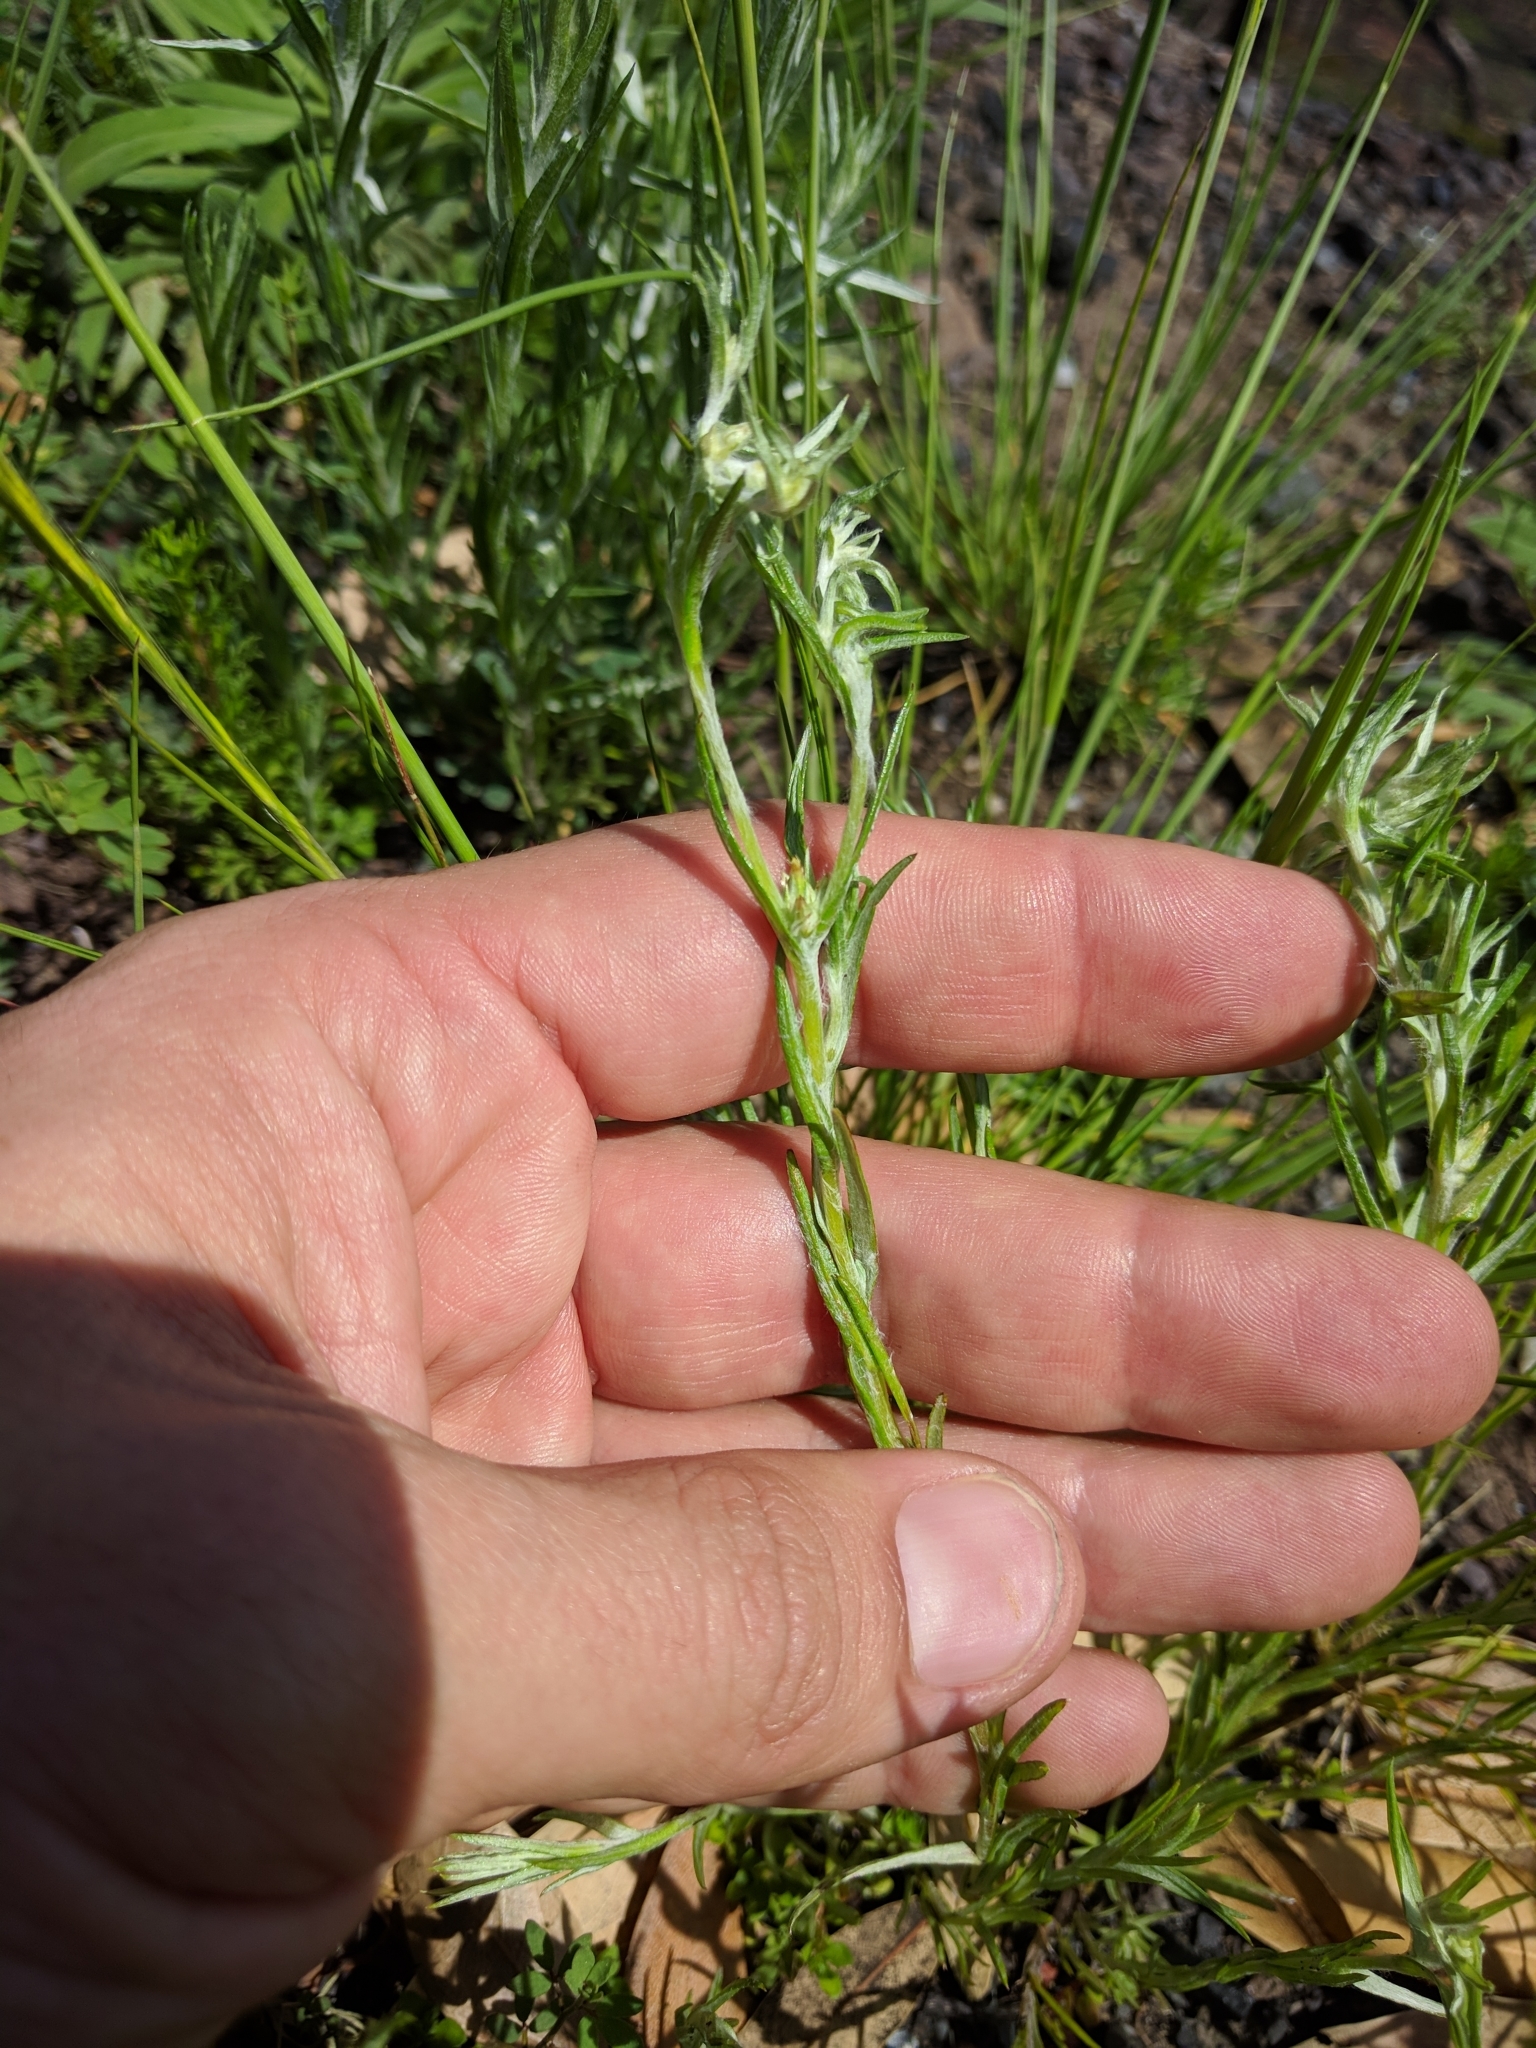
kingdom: Plantae
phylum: Tracheophyta
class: Magnoliopsida
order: Asterales
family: Asteraceae
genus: Logfia
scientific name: Logfia gallica
